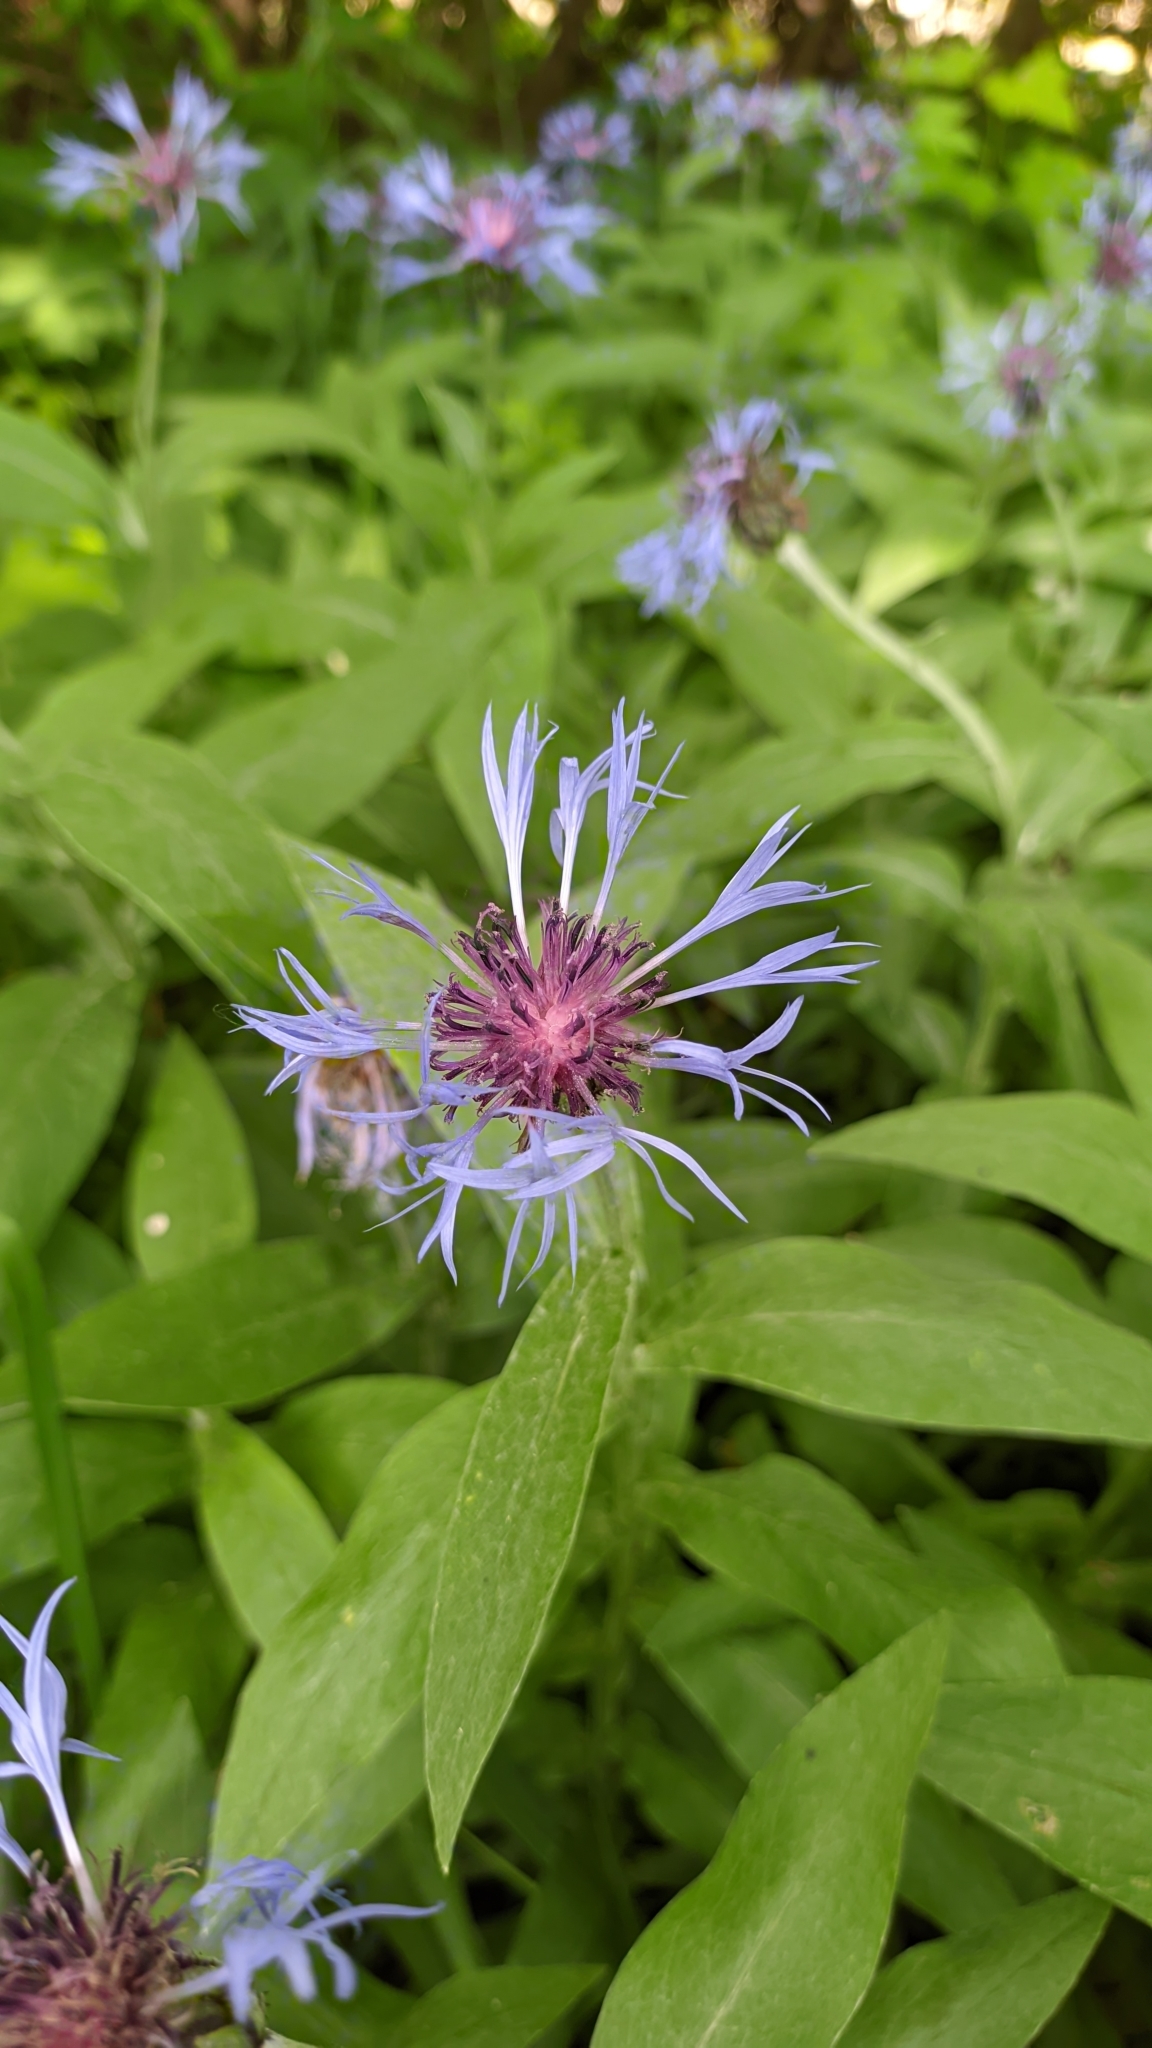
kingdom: Plantae
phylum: Tracheophyta
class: Magnoliopsida
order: Asterales
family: Asteraceae
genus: Centaurea
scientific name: Centaurea montana
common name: Perennial cornflower
